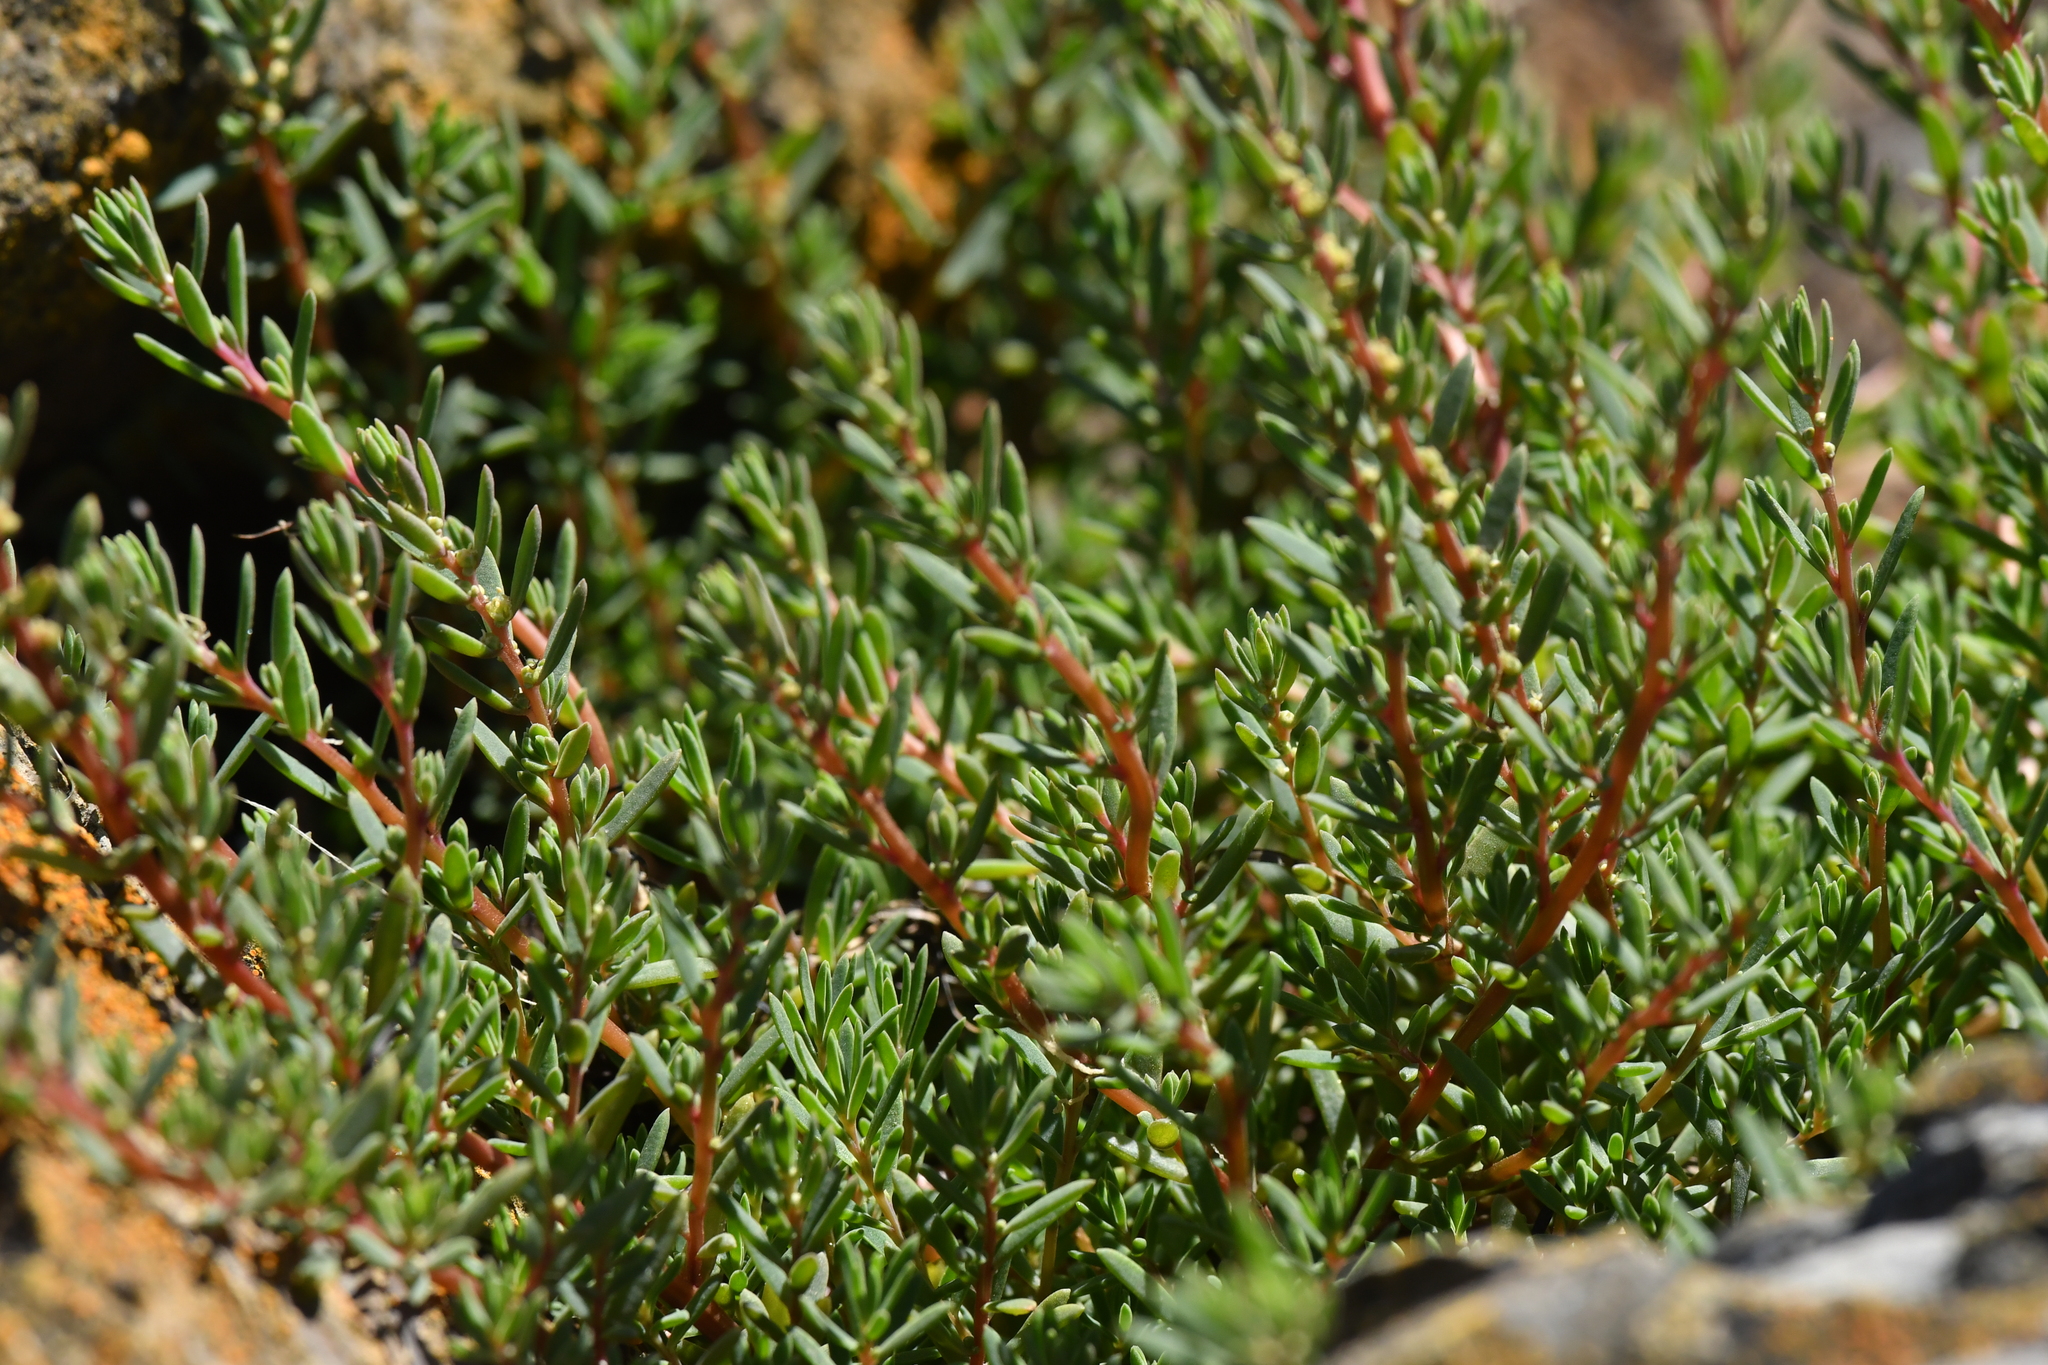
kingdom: Plantae
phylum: Tracheophyta
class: Magnoliopsida
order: Caryophyllales
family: Amaranthaceae
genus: Suaeda
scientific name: Suaeda novae-zelandiae
